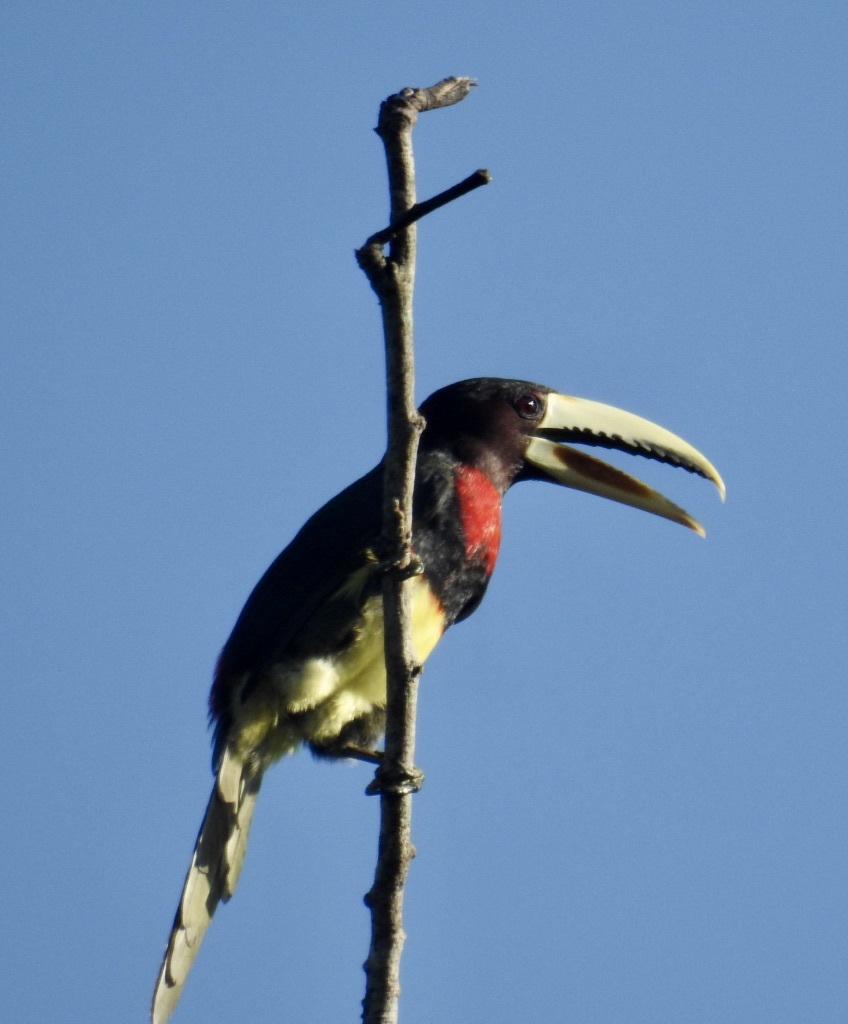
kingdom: Animalia
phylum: Chordata
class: Aves
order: Piciformes
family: Ramphastidae
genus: Pteroglossus
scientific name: Pteroglossus azara
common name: Ivory-billed aracari
